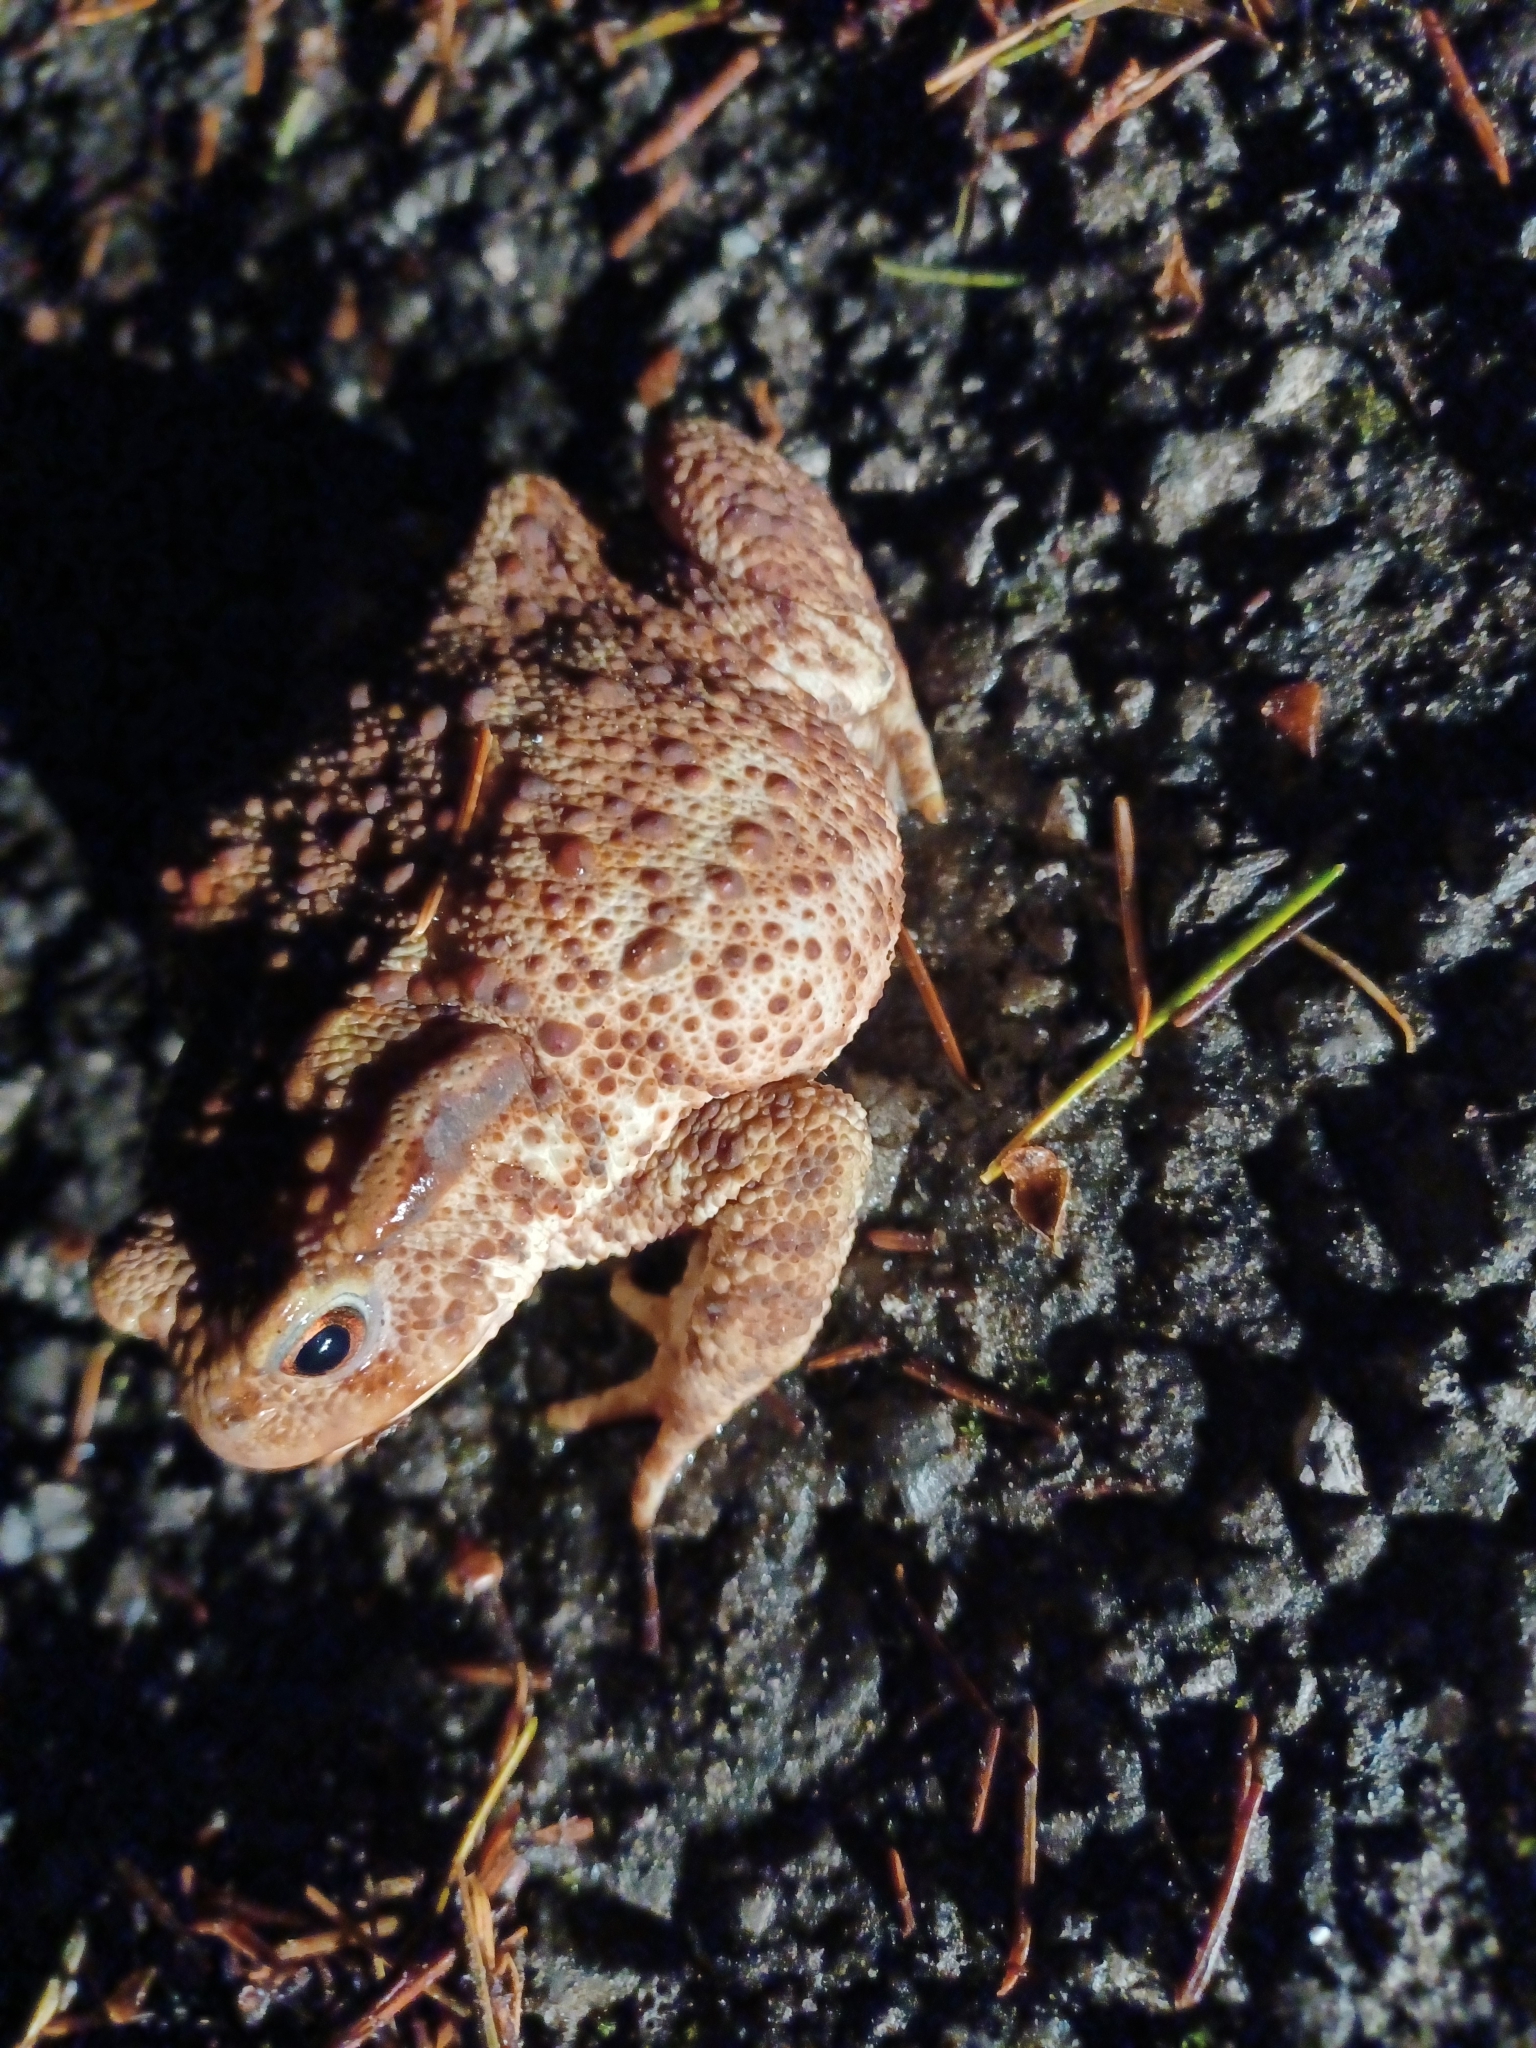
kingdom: Animalia
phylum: Chordata
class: Amphibia
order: Anura
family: Bufonidae
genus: Bufo
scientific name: Bufo bufo
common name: Common toad
